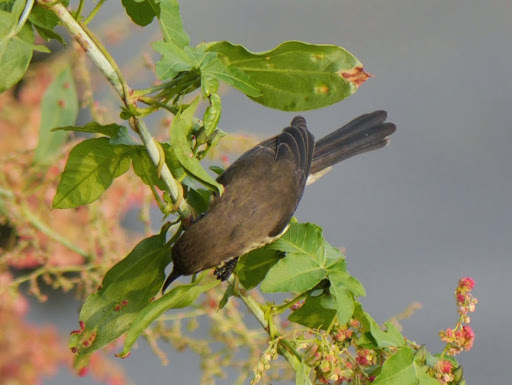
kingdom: Animalia
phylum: Chordata
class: Aves
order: Passeriformes
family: Nectariniidae
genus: Cinnyris
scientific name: Cinnyris erythrocercus
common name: Red-chested sunbird
